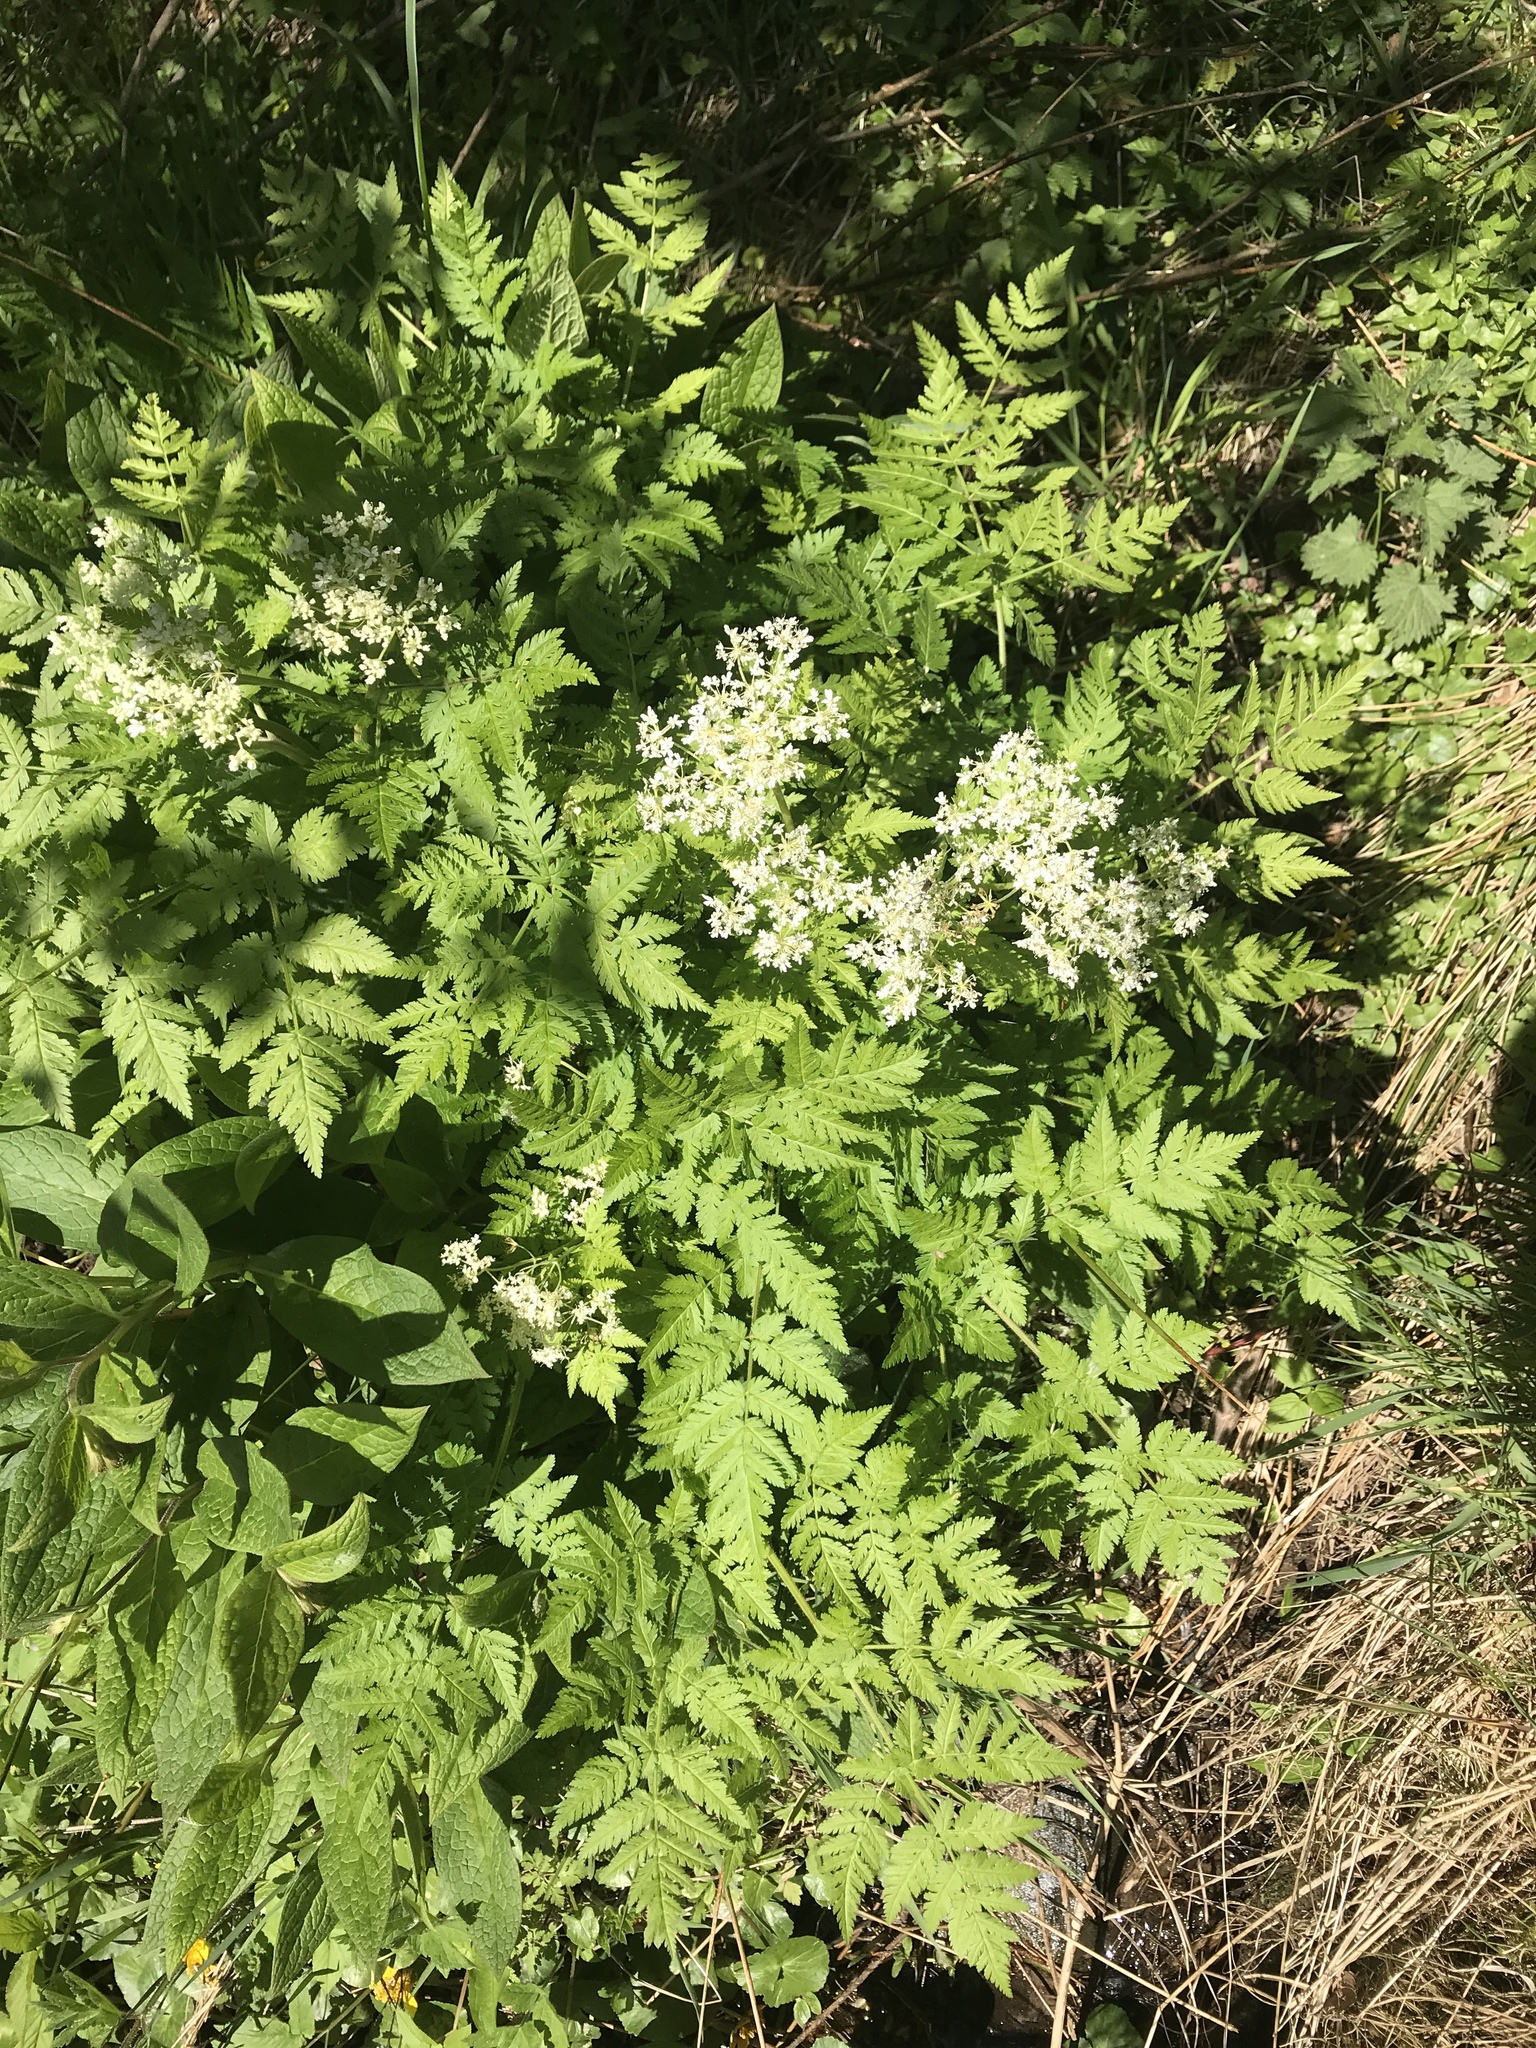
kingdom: Plantae
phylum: Tracheophyta
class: Magnoliopsida
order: Apiales
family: Apiaceae
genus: Myrrhis
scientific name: Myrrhis odorata
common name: Sweet cicely
